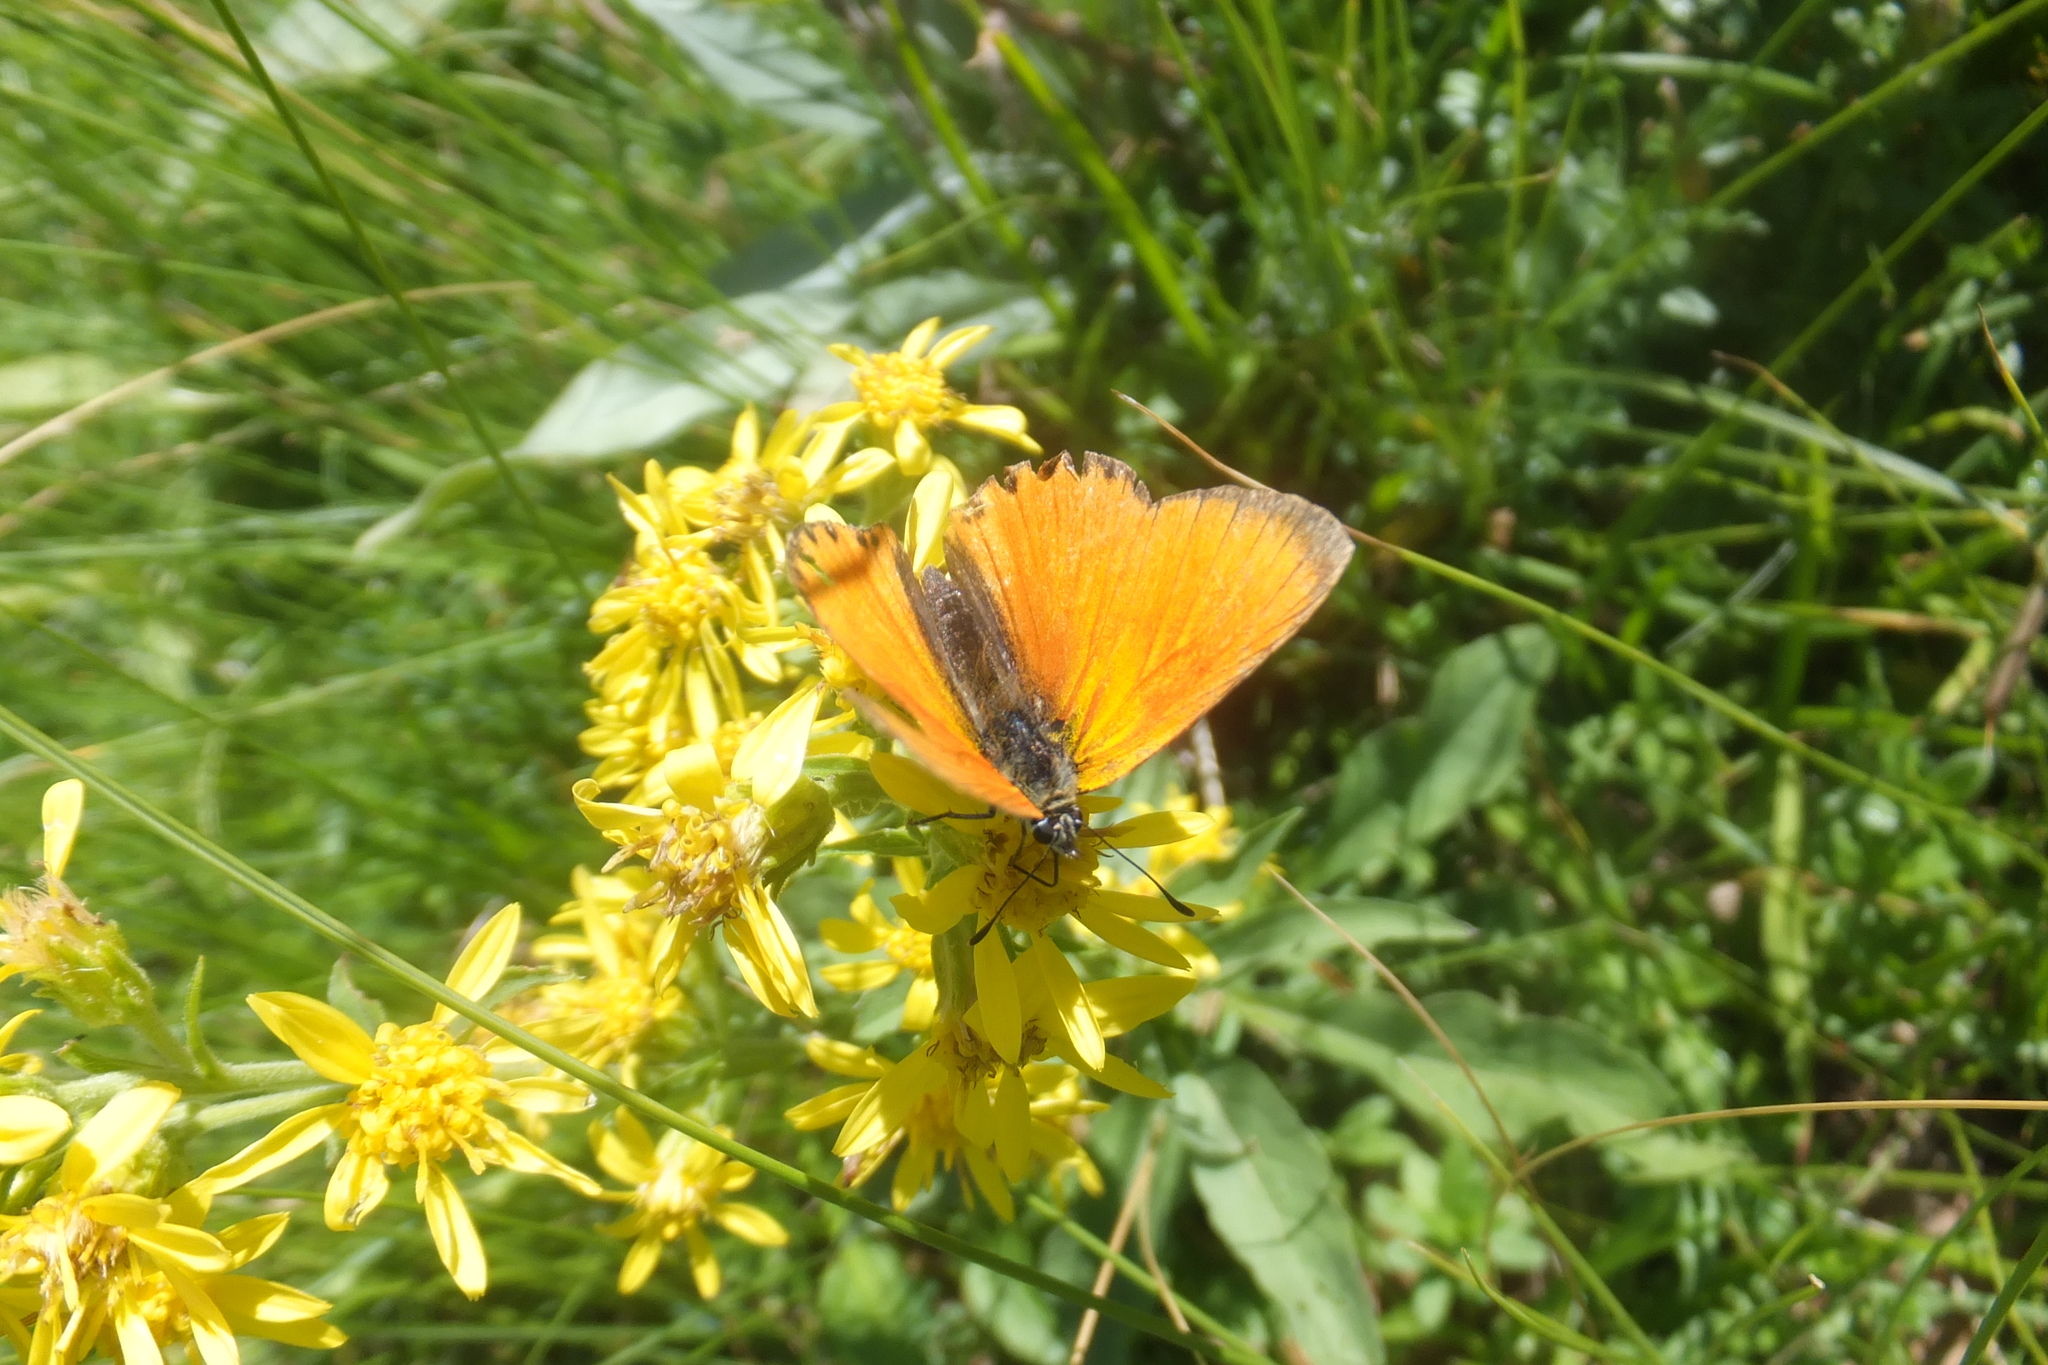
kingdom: Animalia
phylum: Arthropoda
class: Insecta
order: Lepidoptera
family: Lycaenidae
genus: Lycaena
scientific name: Lycaena virgaureae
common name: Scarce copper
